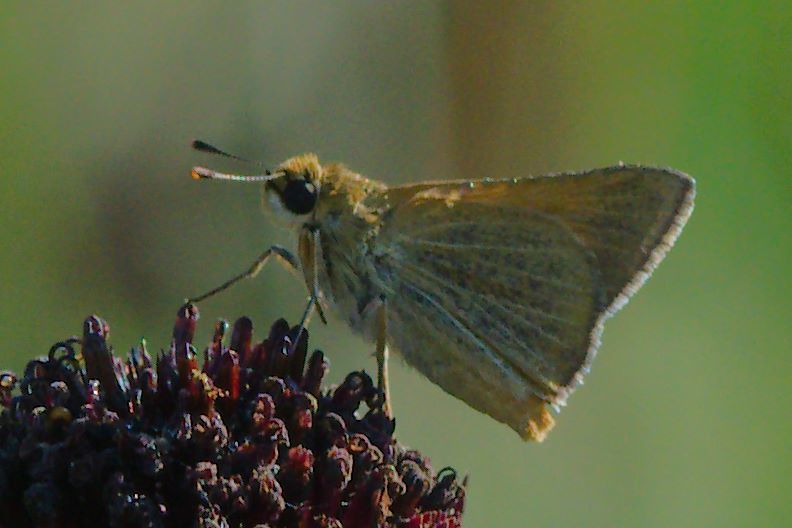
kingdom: Animalia
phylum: Arthropoda
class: Insecta
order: Lepidoptera
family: Hesperiidae
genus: Atrytone
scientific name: Atrytone arogos
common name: Arogos skipper
